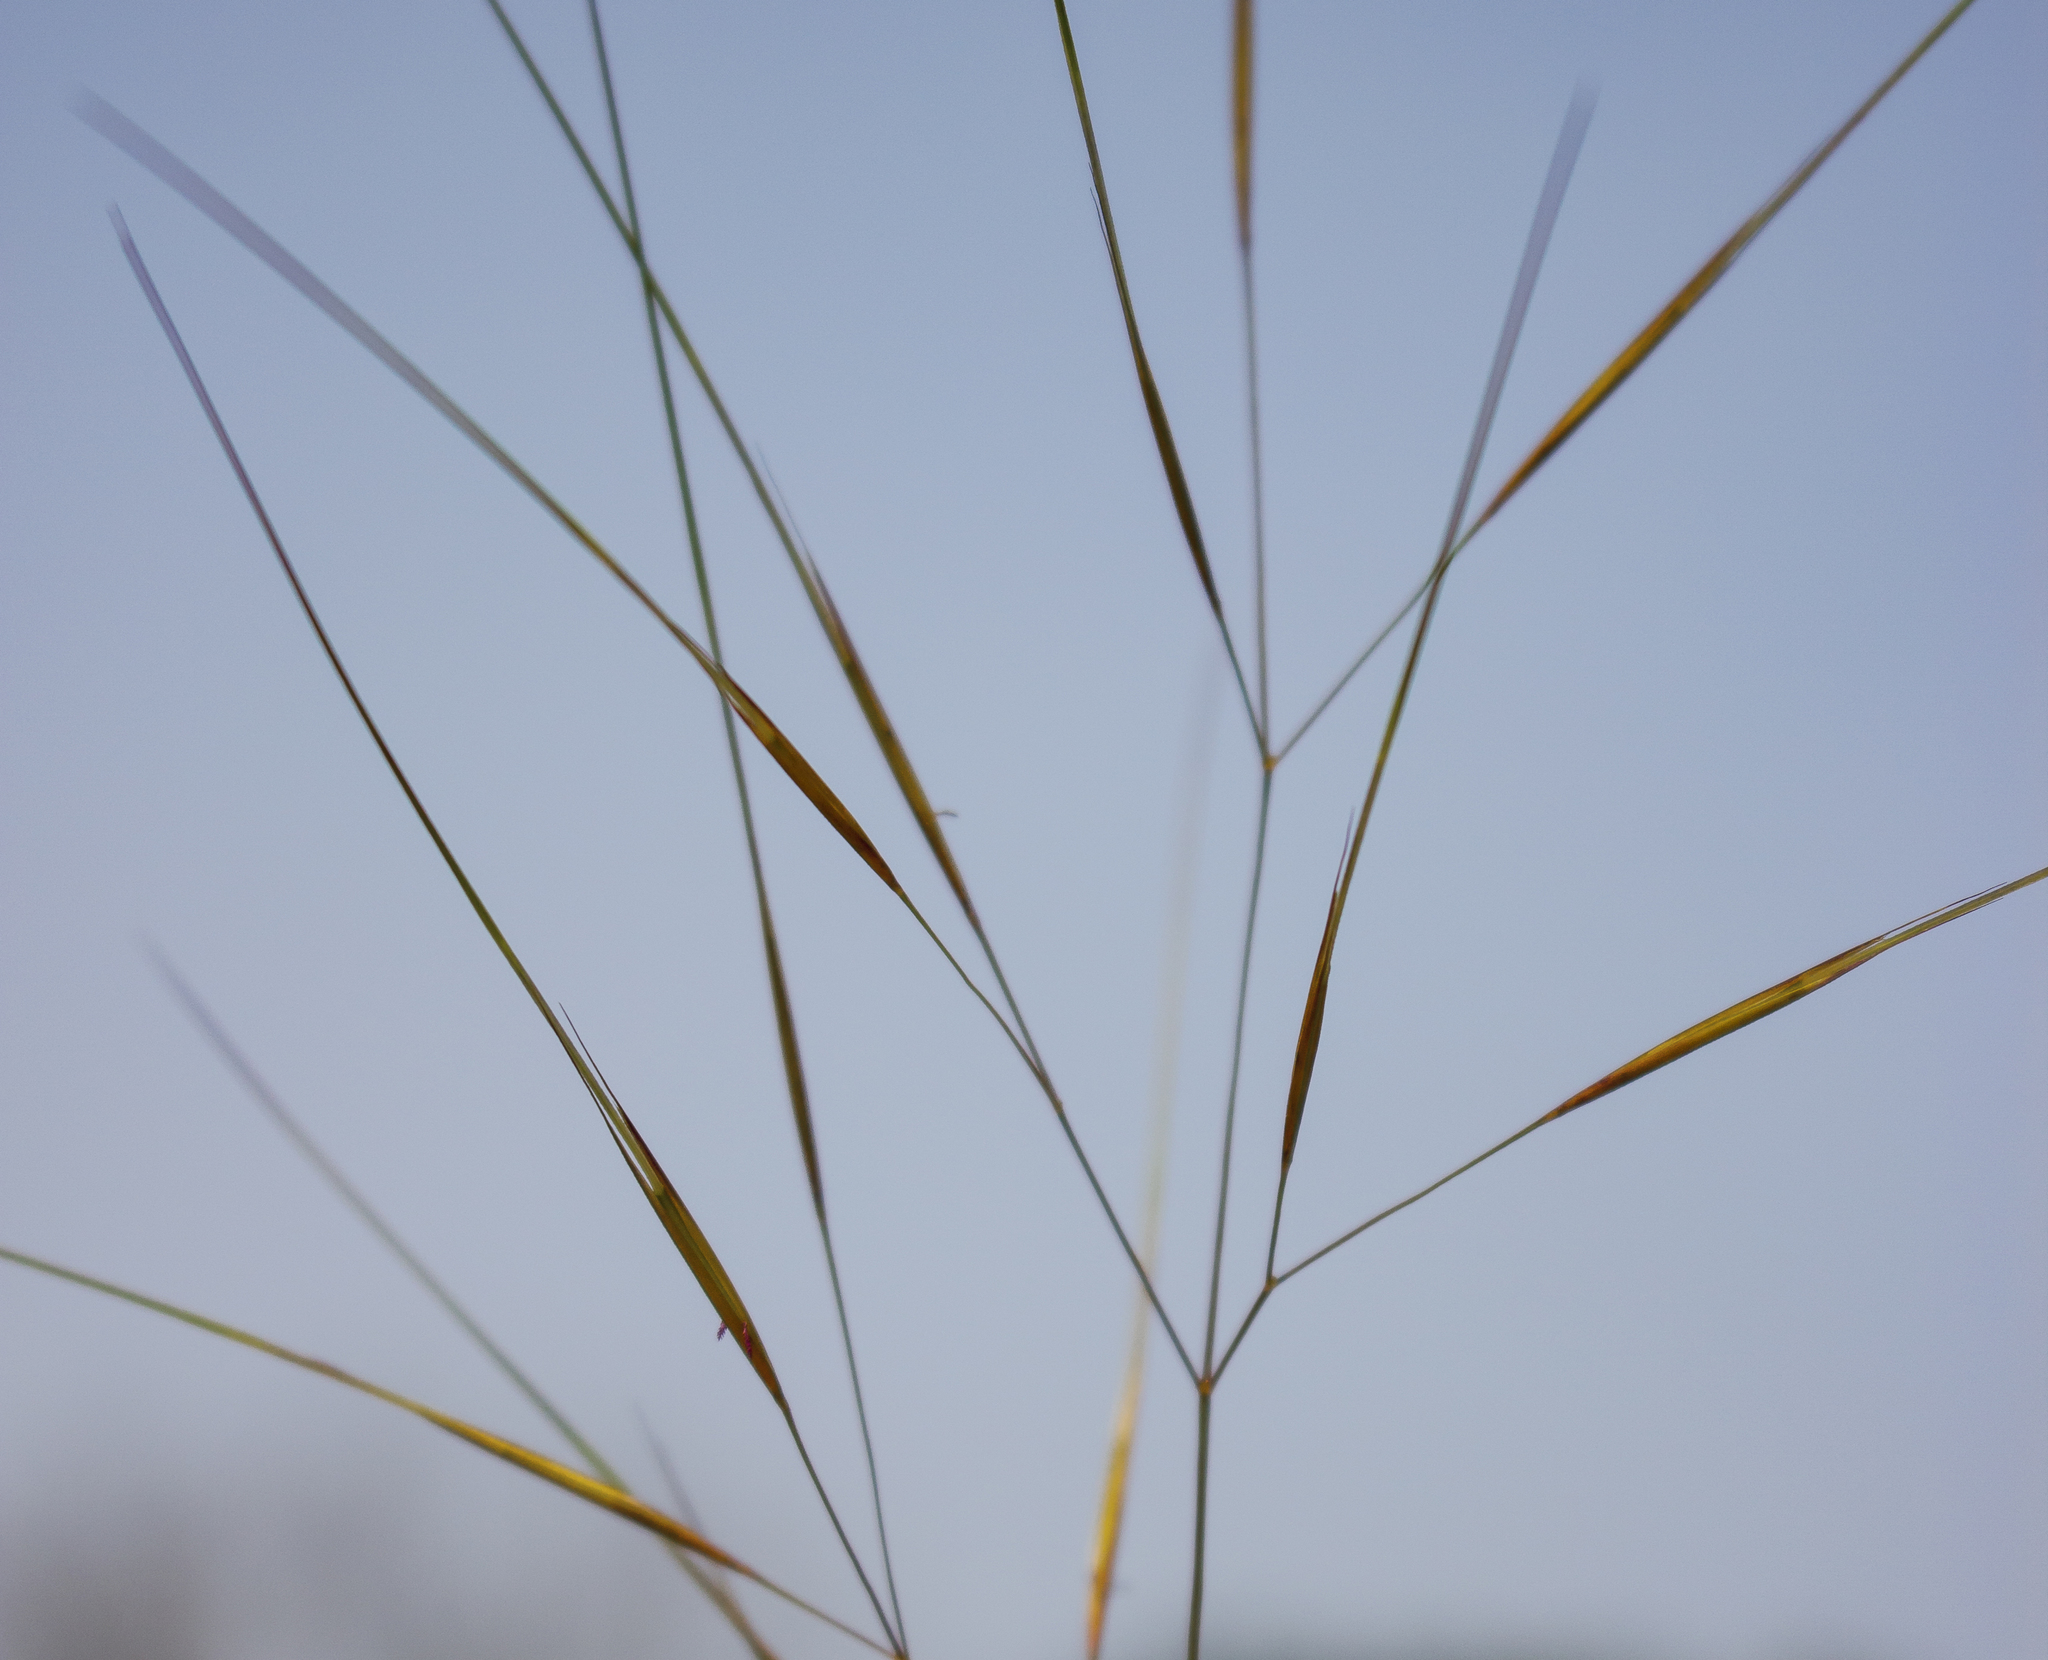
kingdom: Plantae
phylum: Tracheophyta
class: Liliopsida
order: Poales
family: Poaceae
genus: Aristida
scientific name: Aristida tuberculosa
